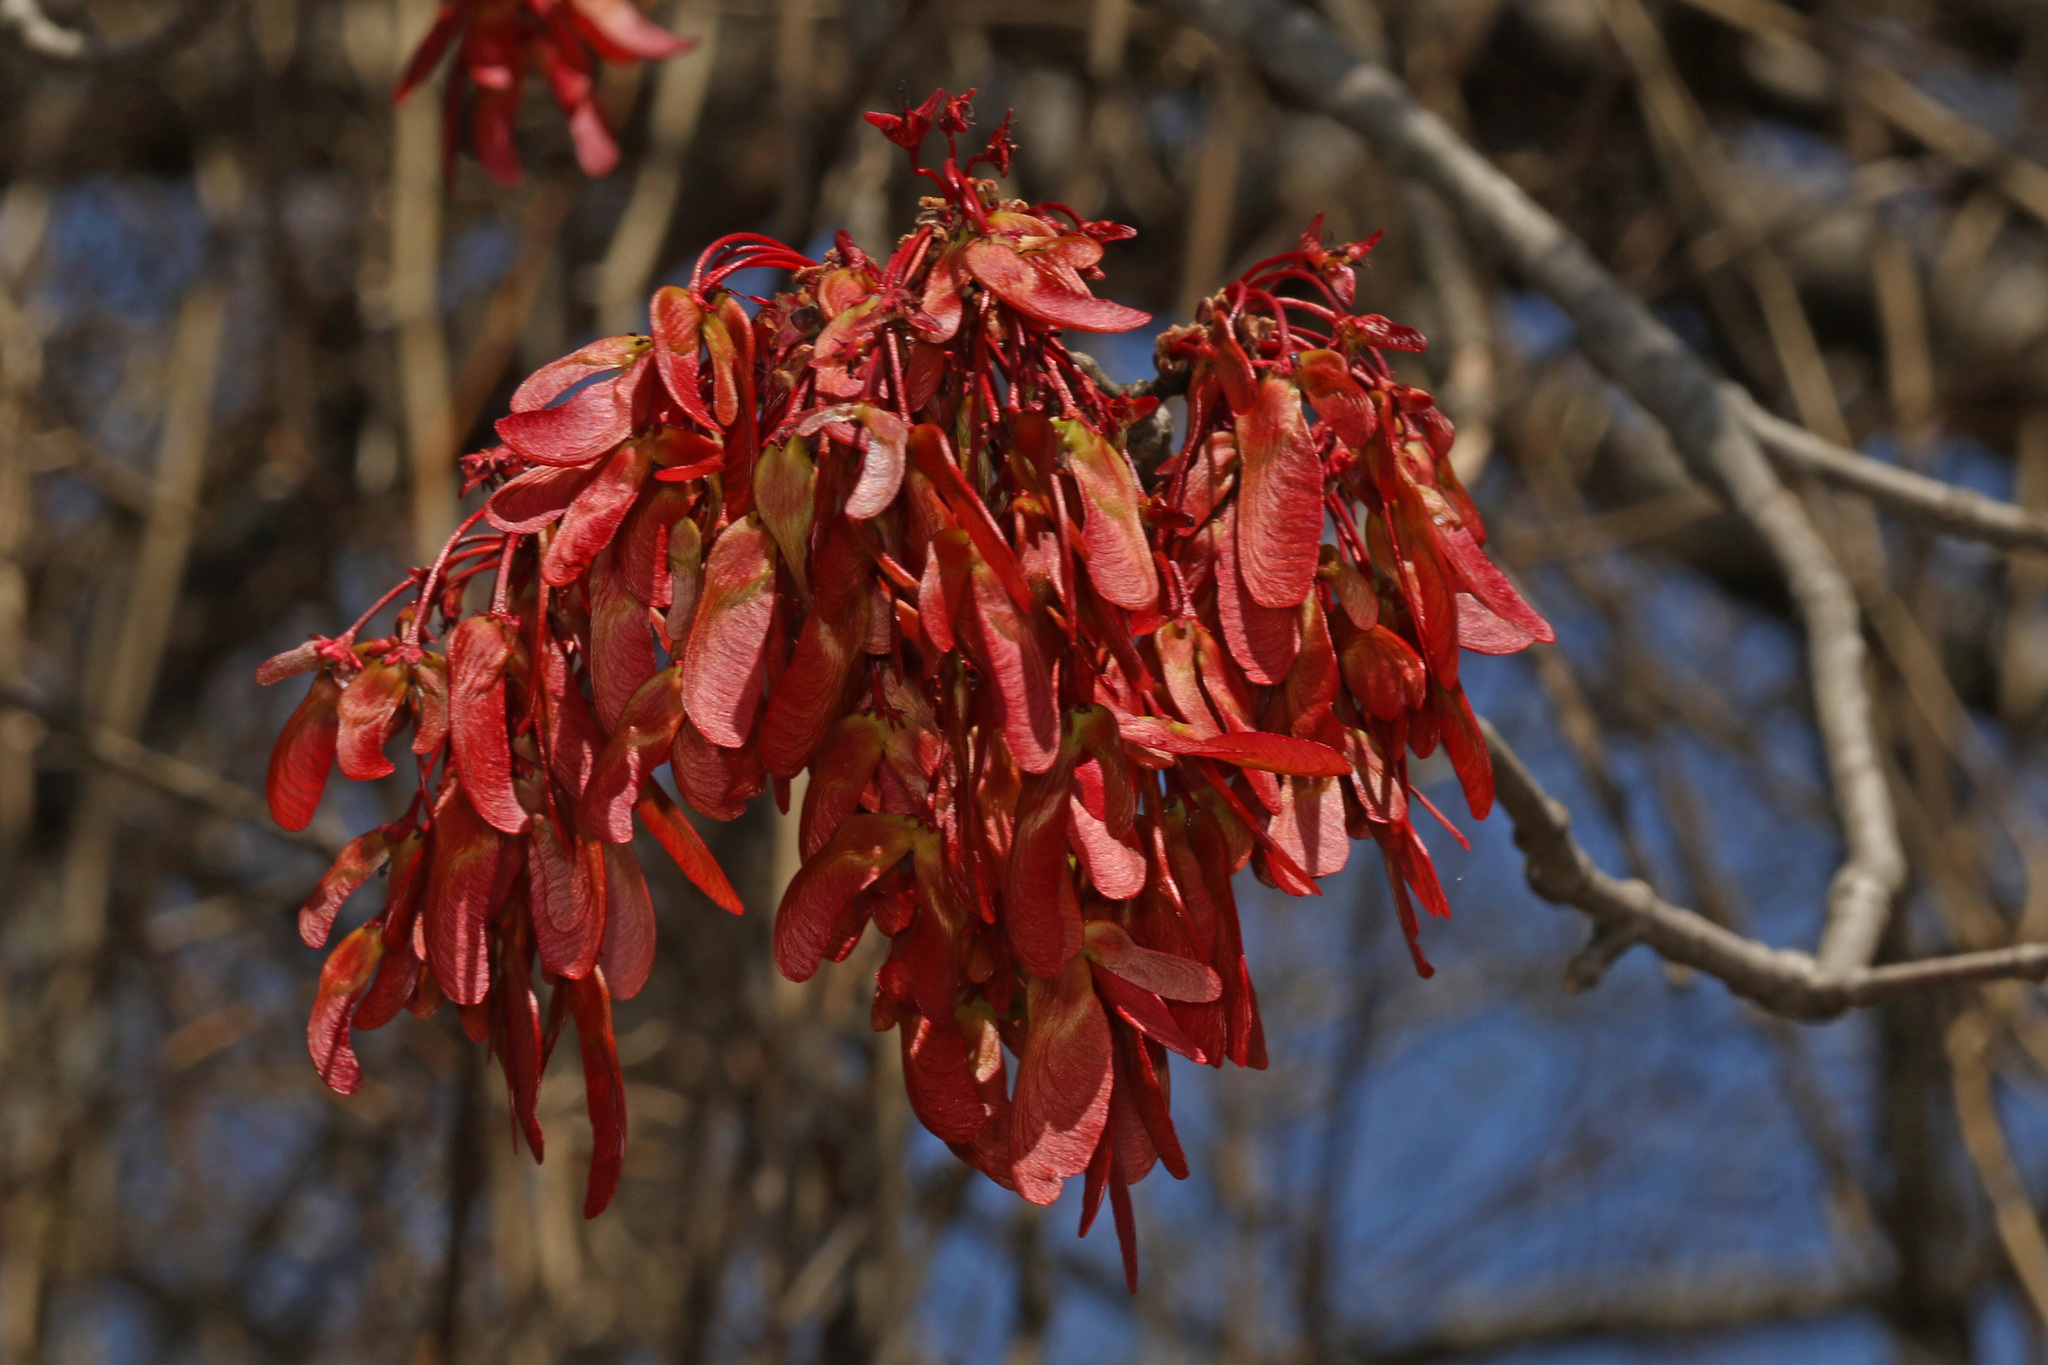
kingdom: Plantae
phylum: Tracheophyta
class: Magnoliopsida
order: Sapindales
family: Sapindaceae
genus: Acer
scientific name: Acer rubrum
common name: Red maple
